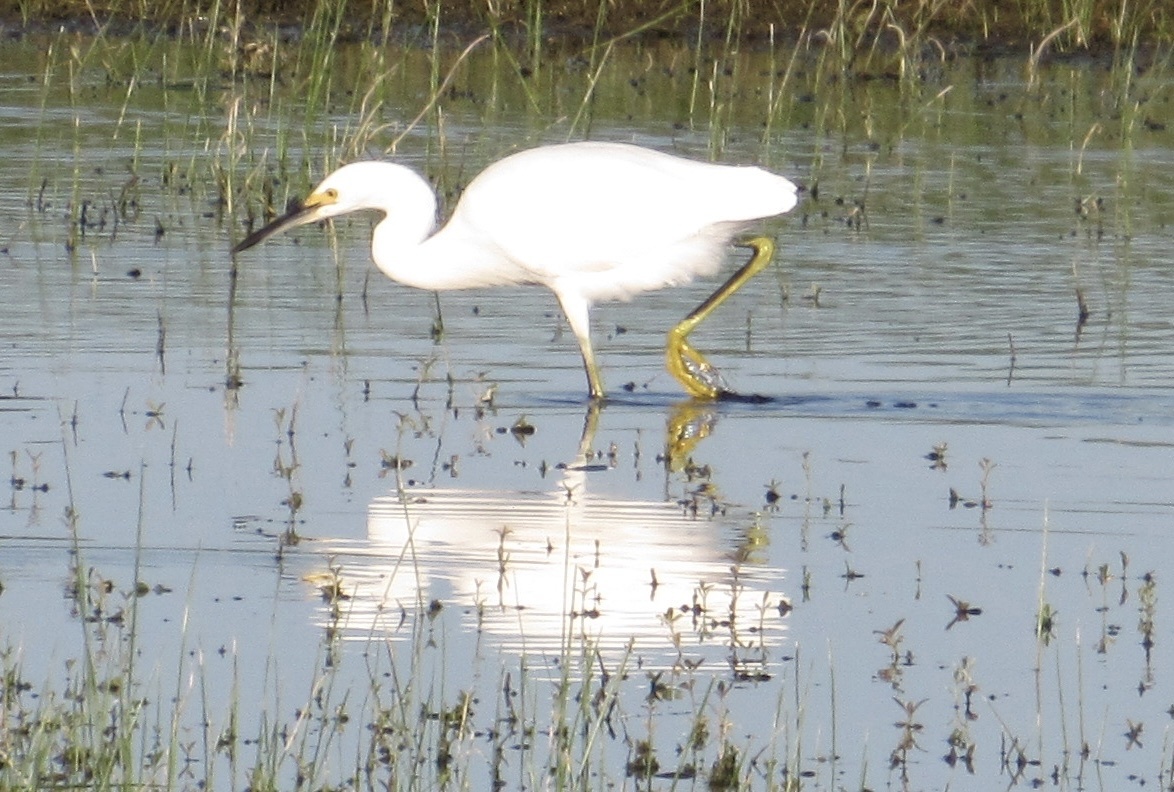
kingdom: Animalia
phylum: Chordata
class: Aves
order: Pelecaniformes
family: Ardeidae
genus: Egretta
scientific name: Egretta thula
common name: Snowy egret
